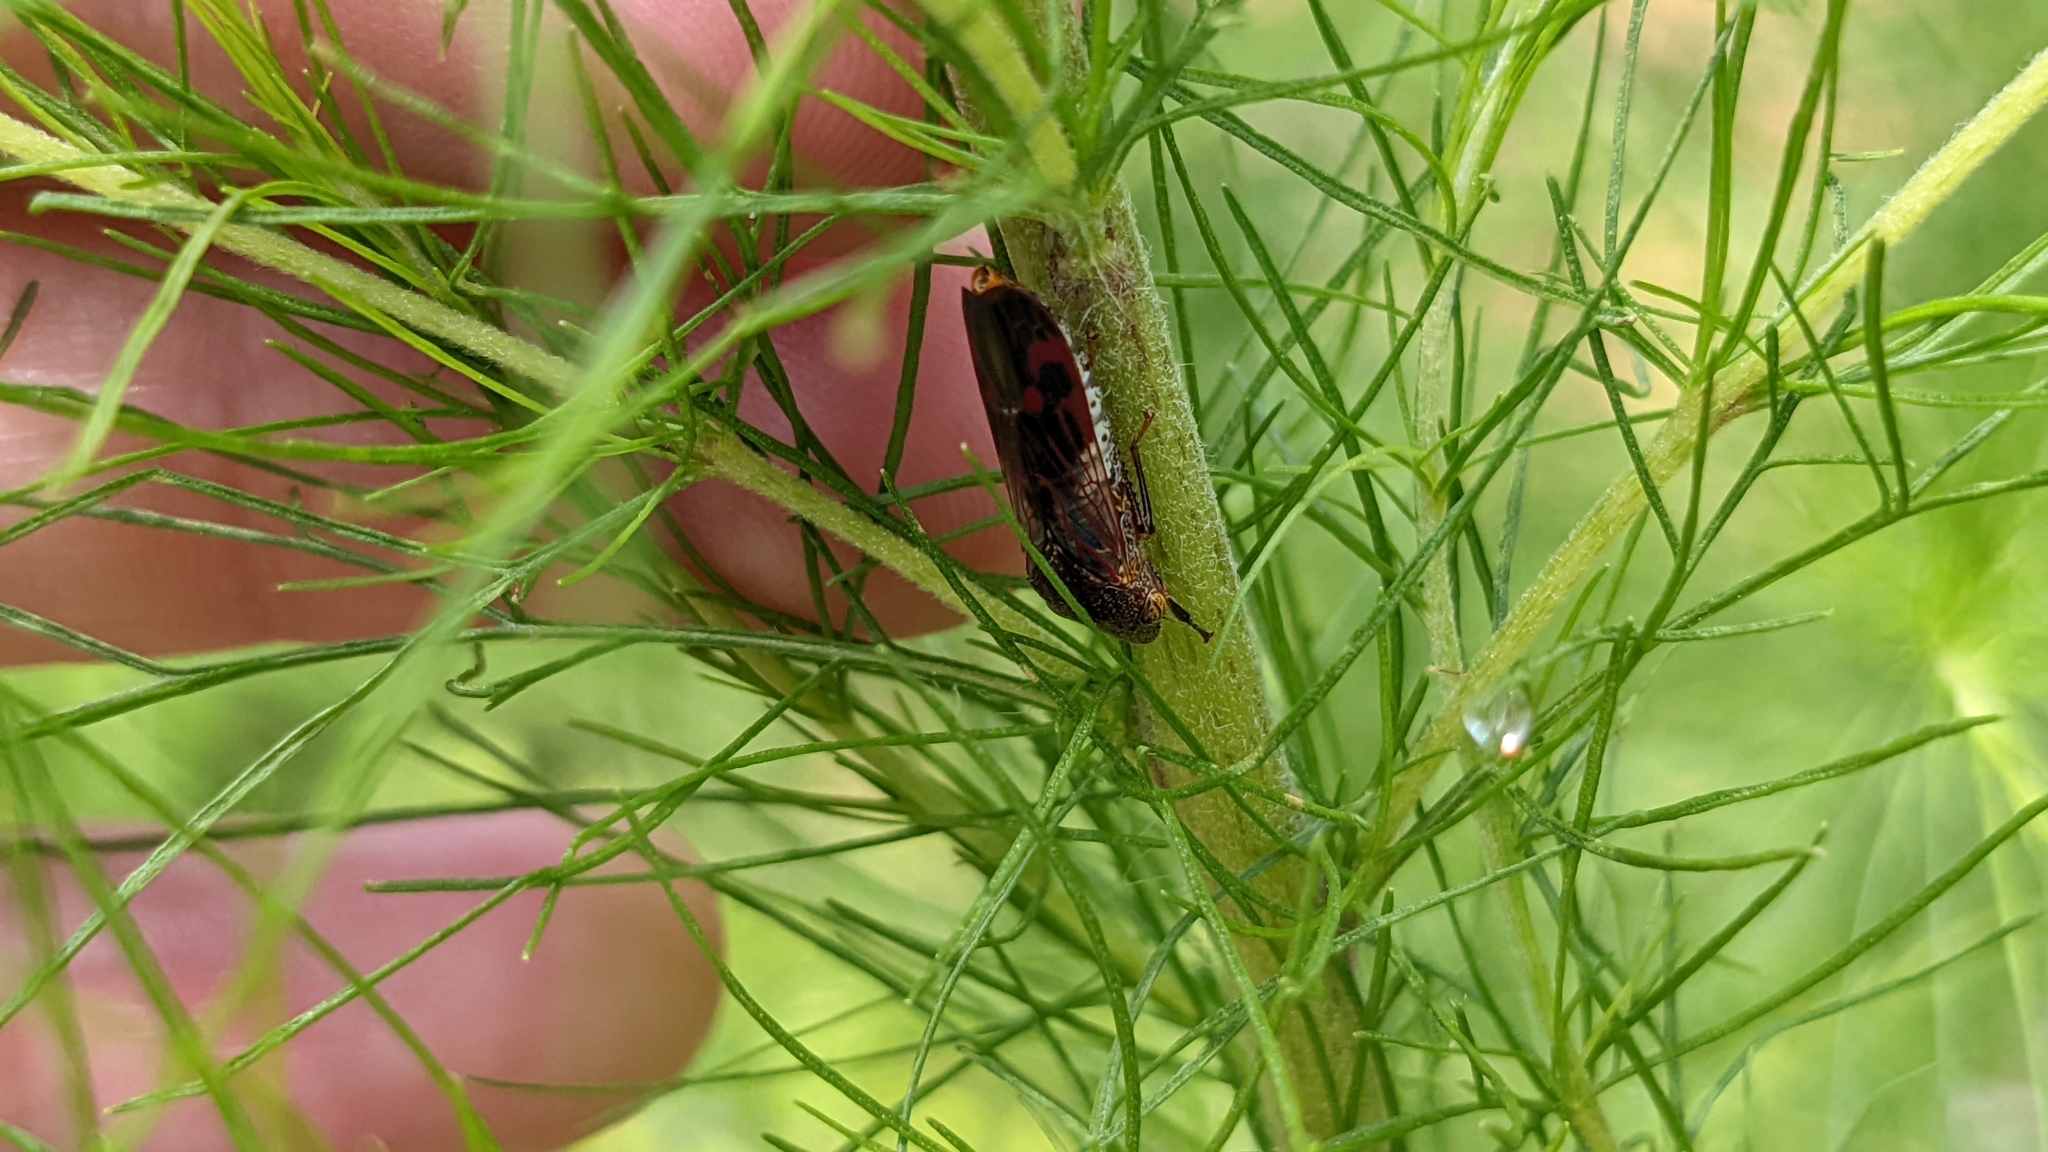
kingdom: Animalia
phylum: Arthropoda
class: Insecta
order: Hemiptera
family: Cicadellidae
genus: Homalodisca
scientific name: Homalodisca vitripennis
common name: Glassy-winged sharpshooter
